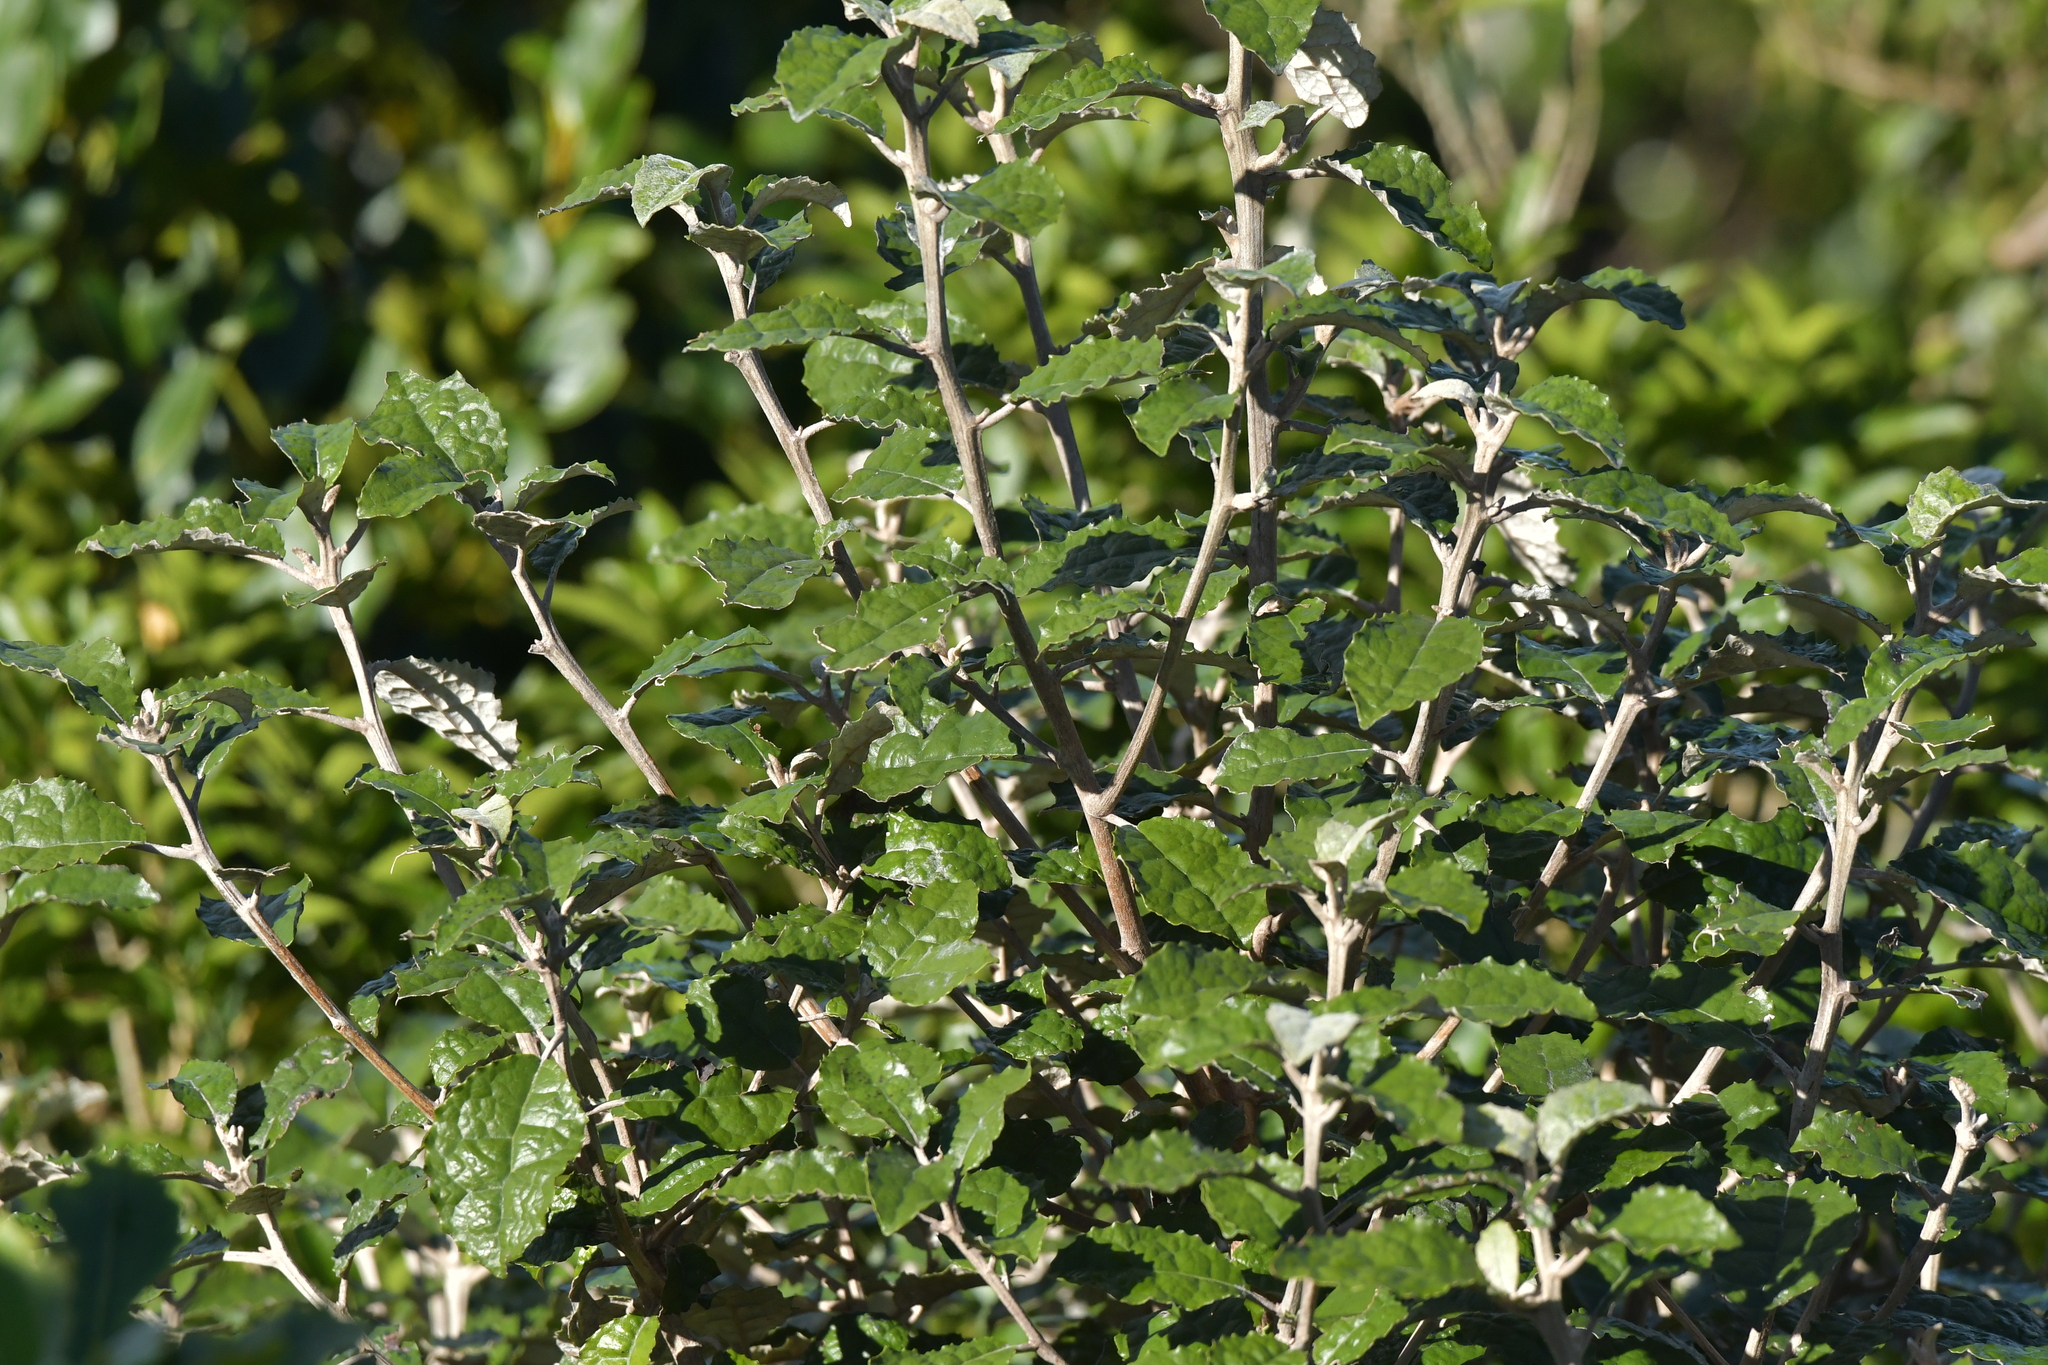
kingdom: Plantae
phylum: Tracheophyta
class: Magnoliopsida
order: Asterales
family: Asteraceae
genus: Olearia
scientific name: Olearia rani
